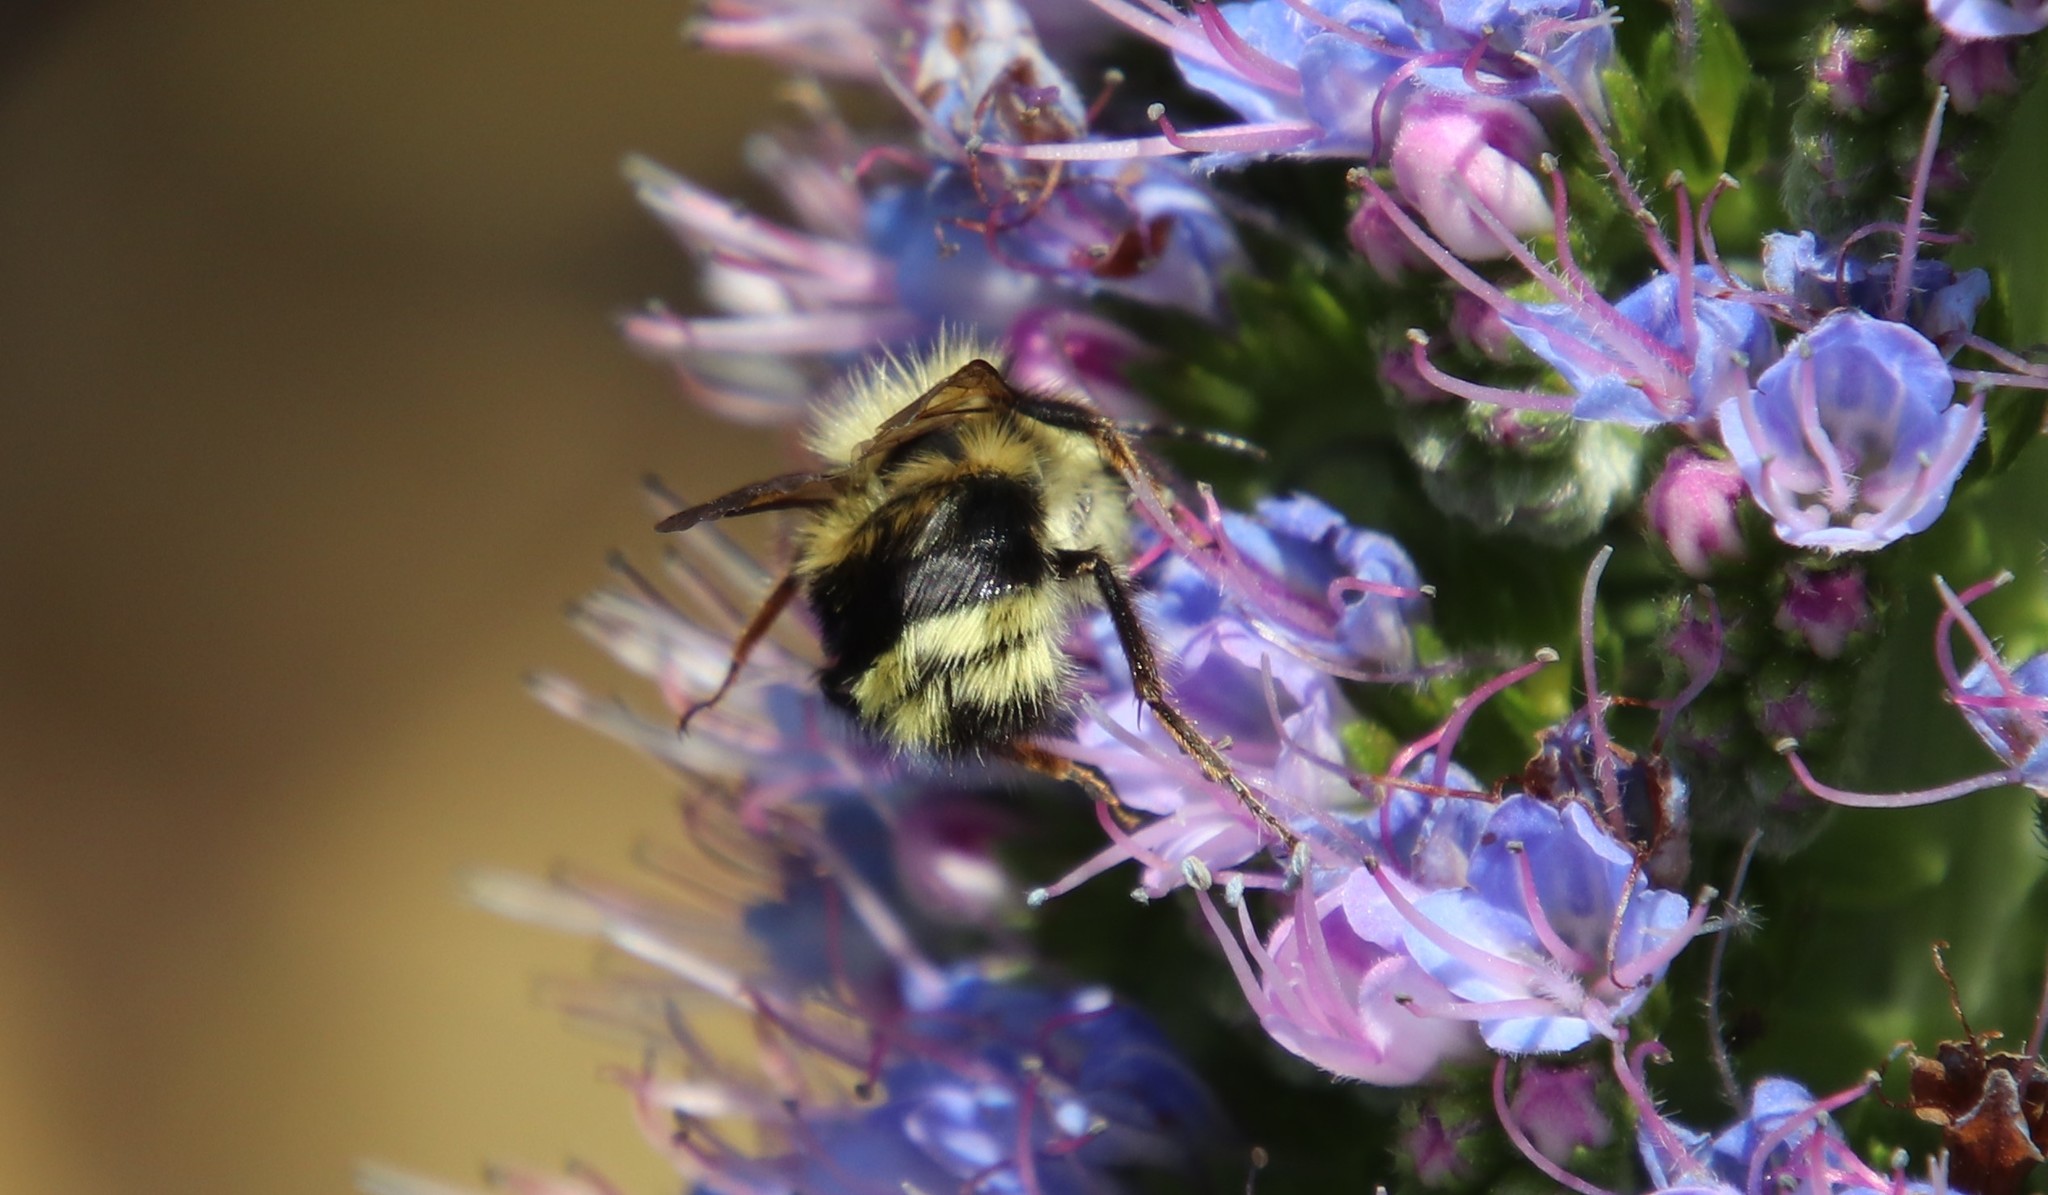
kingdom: Animalia
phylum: Arthropoda
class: Insecta
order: Hymenoptera
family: Apidae
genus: Bombus
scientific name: Bombus melanopygus
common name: Black tail bumble bee
